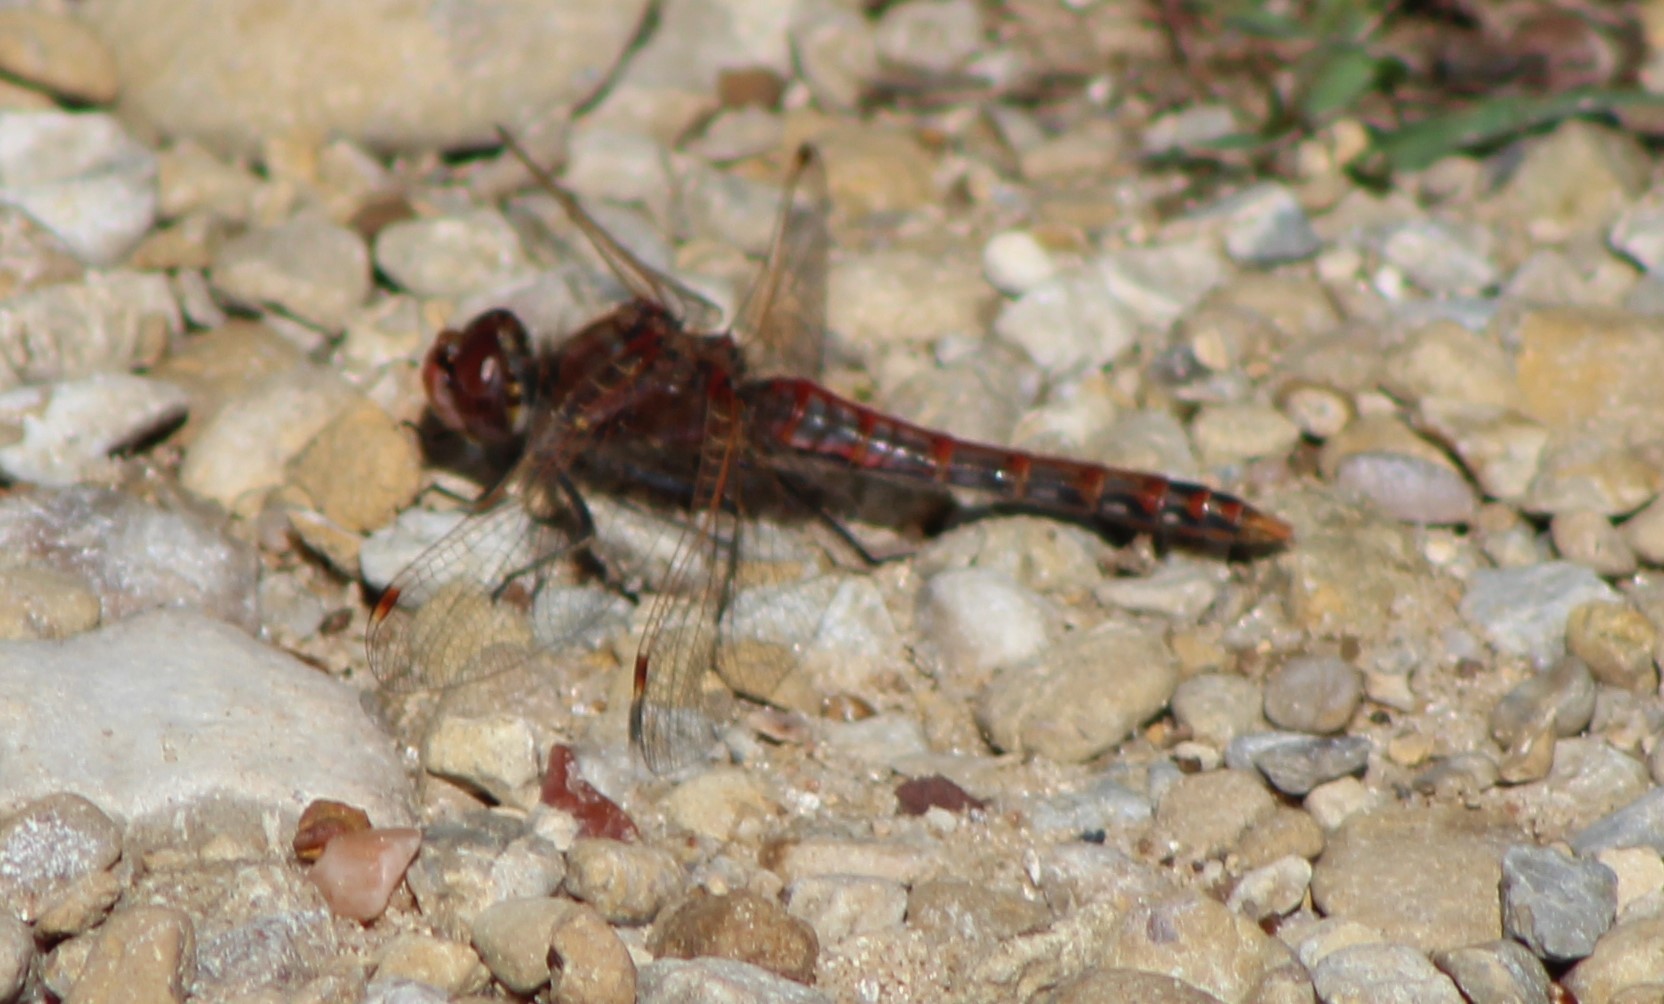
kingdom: Animalia
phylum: Arthropoda
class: Insecta
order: Odonata
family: Libellulidae
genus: Sympetrum
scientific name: Sympetrum corruptum
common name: Variegated meadowhawk
